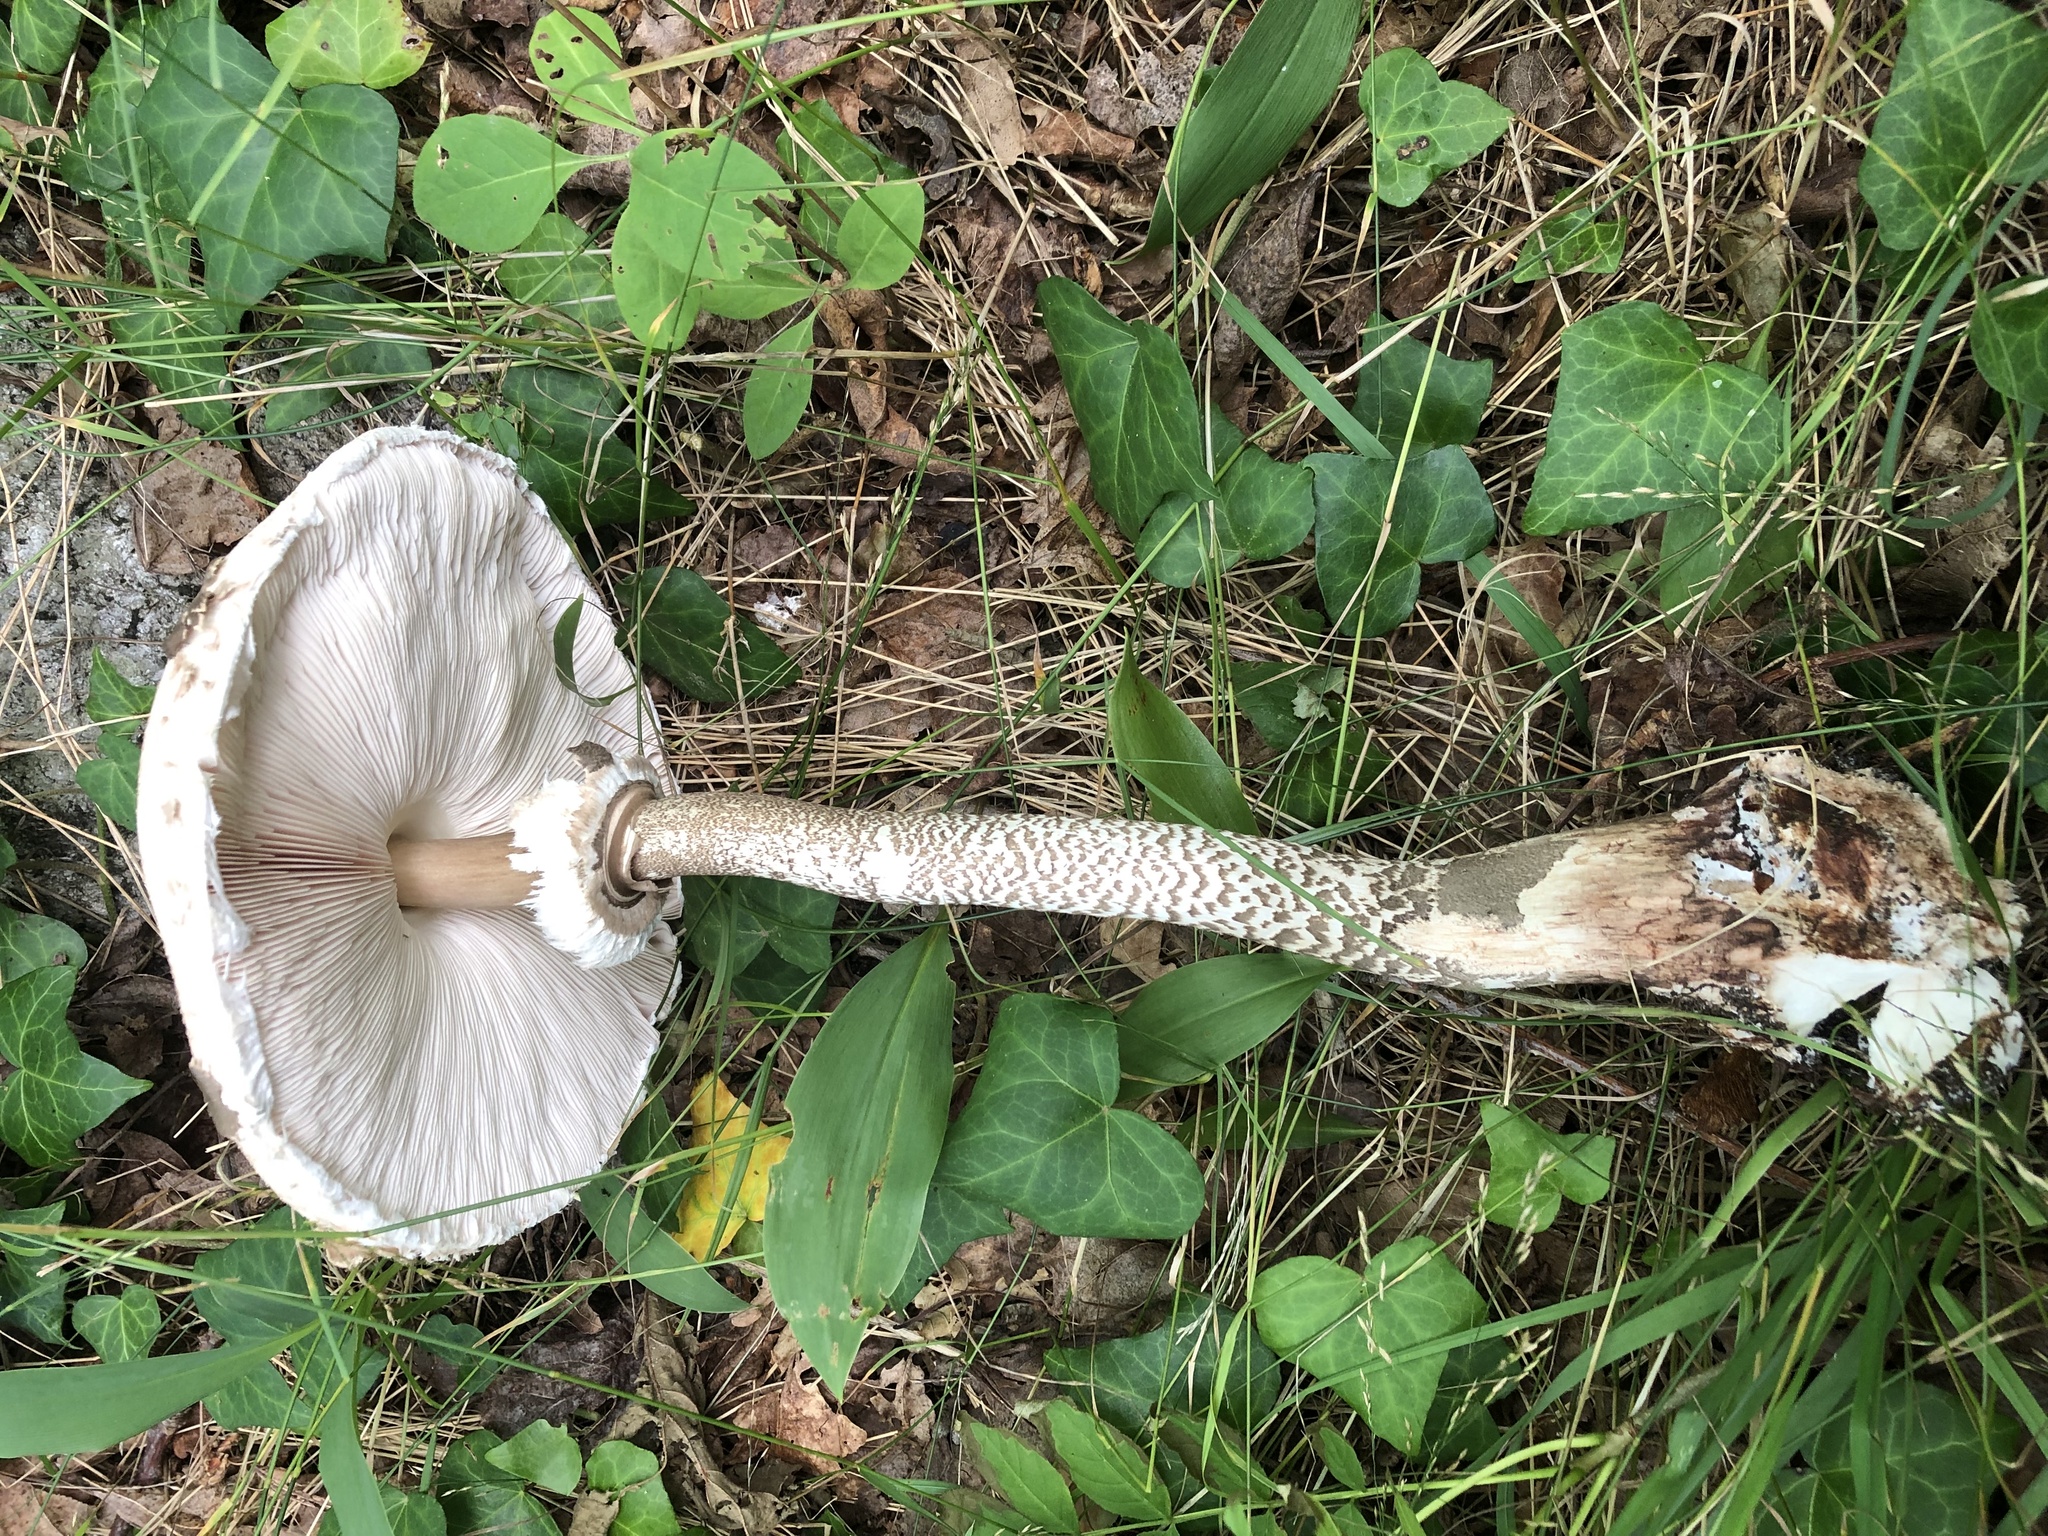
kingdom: Fungi
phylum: Basidiomycota
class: Agaricomycetes
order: Agaricales
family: Agaricaceae
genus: Macrolepiota
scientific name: Macrolepiota procera
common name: Parasol
